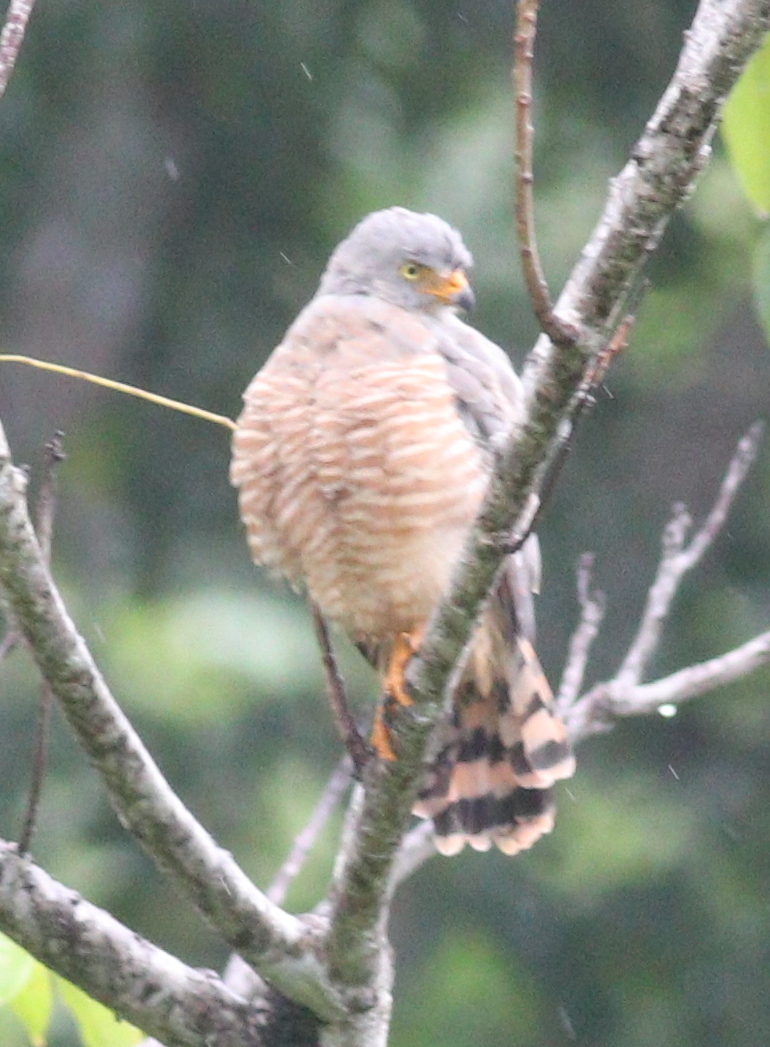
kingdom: Animalia
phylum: Chordata
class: Aves
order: Accipitriformes
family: Accipitridae
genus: Rupornis
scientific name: Rupornis magnirostris
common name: Roadside hawk
